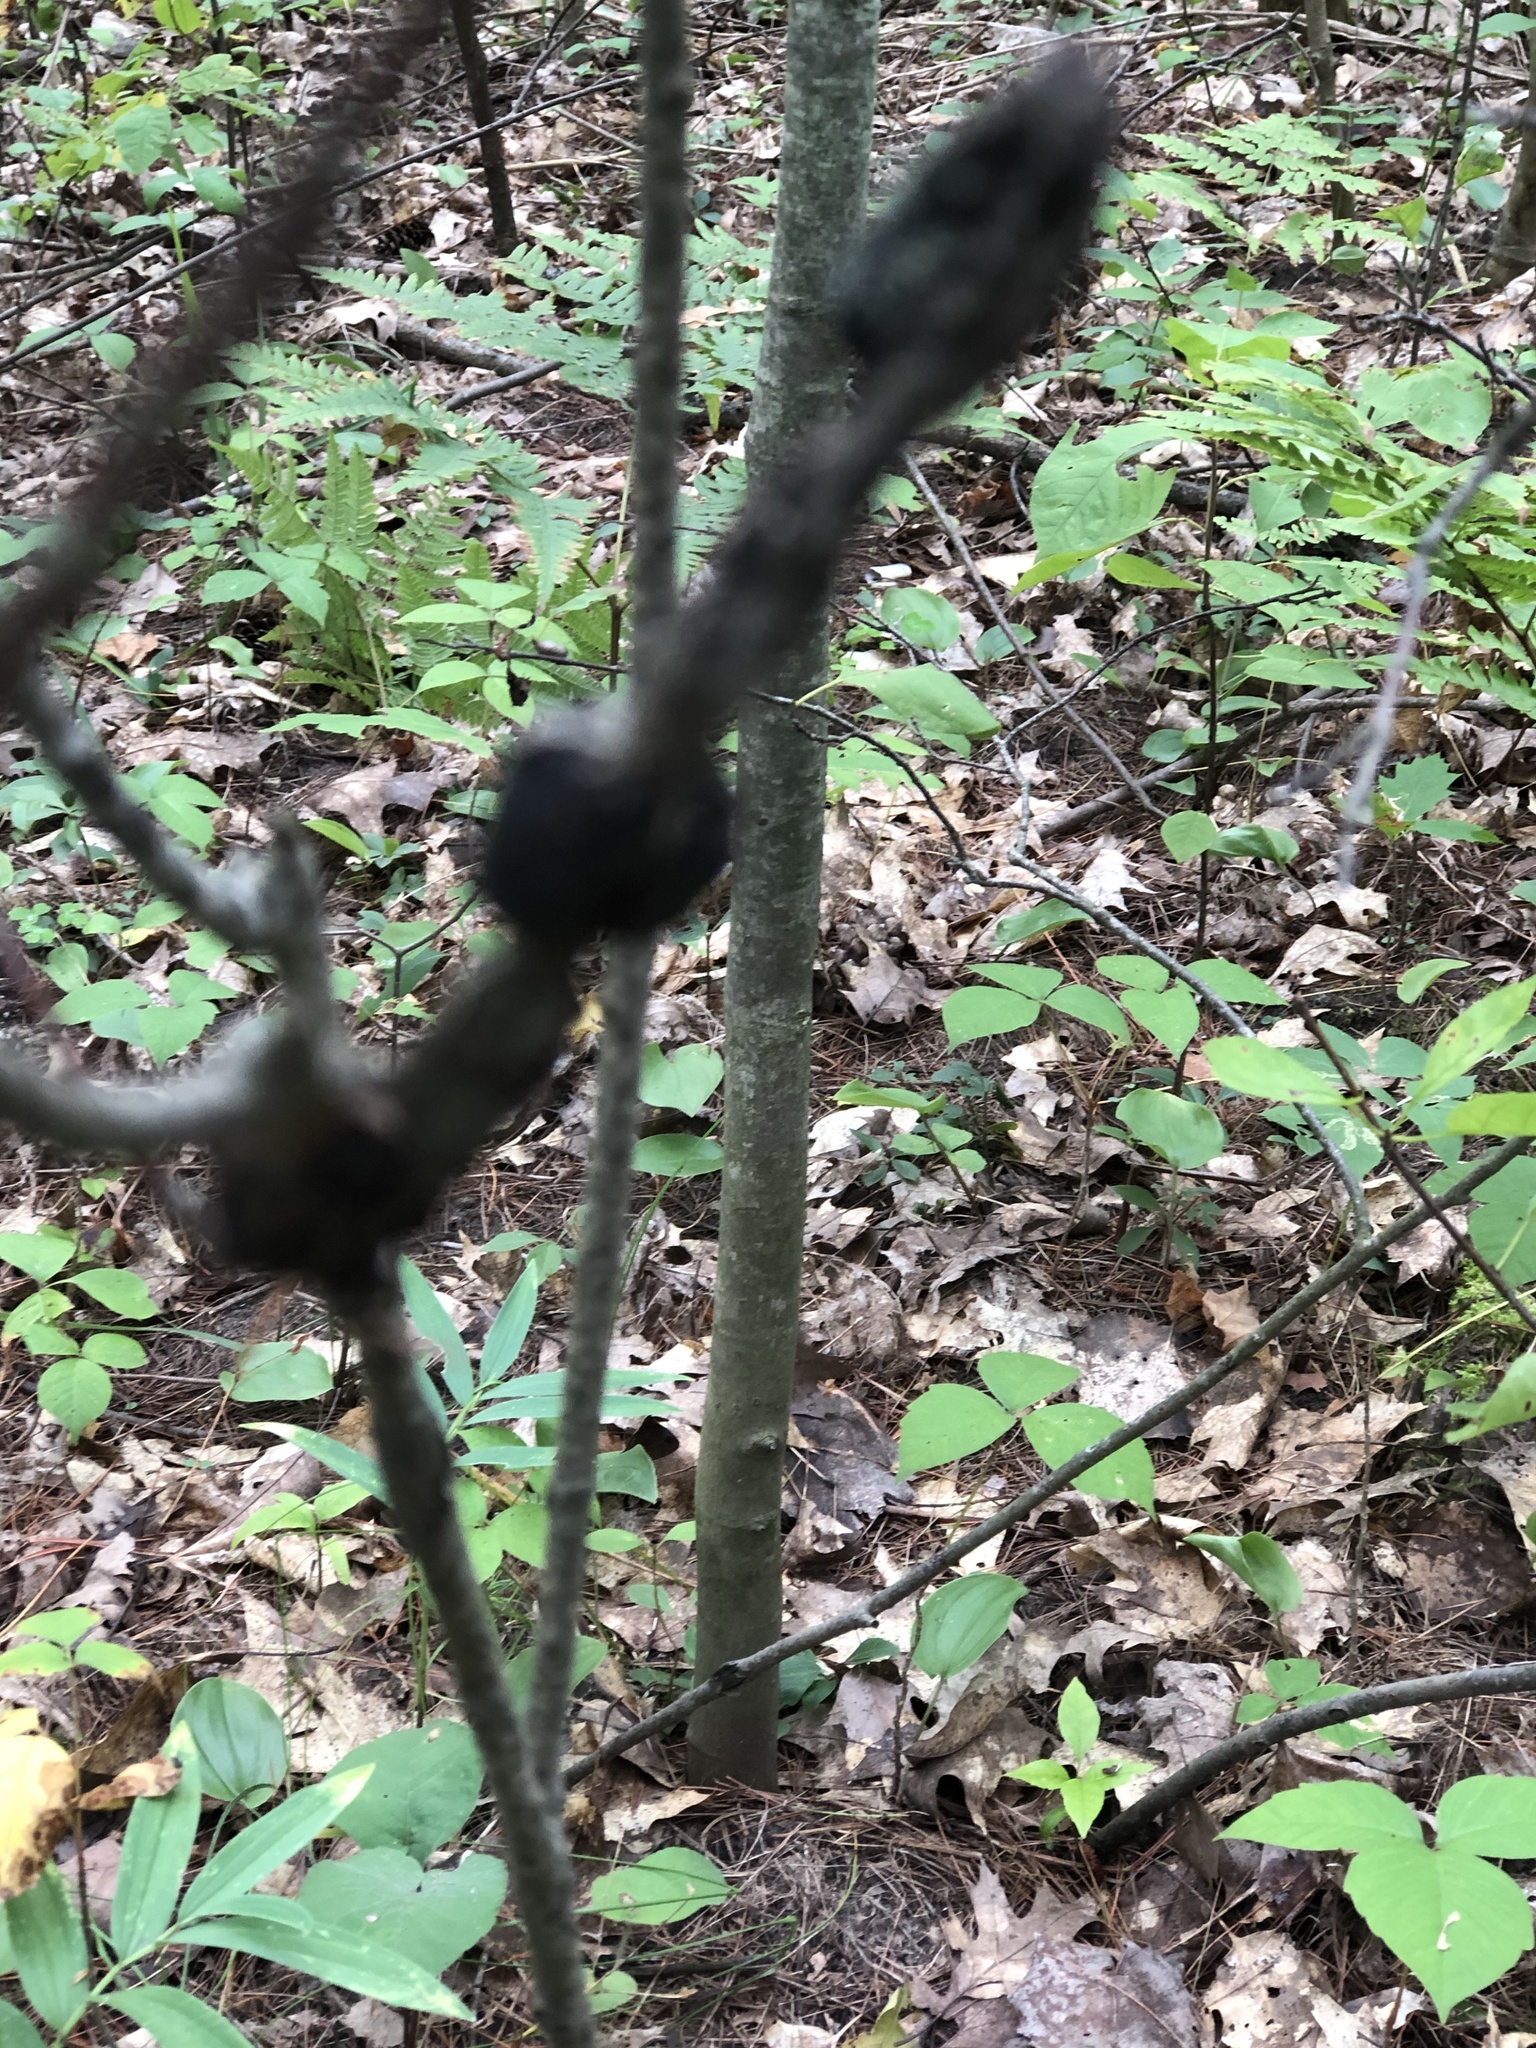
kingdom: Fungi
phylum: Ascomycota
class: Dothideomycetes
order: Venturiales
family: Venturiaceae
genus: Apiosporina
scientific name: Apiosporina morbosa
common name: Black knot
